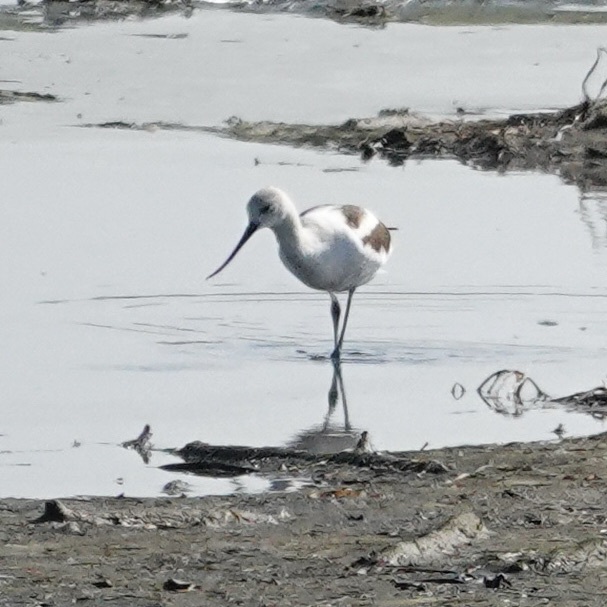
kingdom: Animalia
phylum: Chordata
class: Aves
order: Charadriiformes
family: Recurvirostridae
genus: Recurvirostra
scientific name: Recurvirostra americana
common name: American avocet
